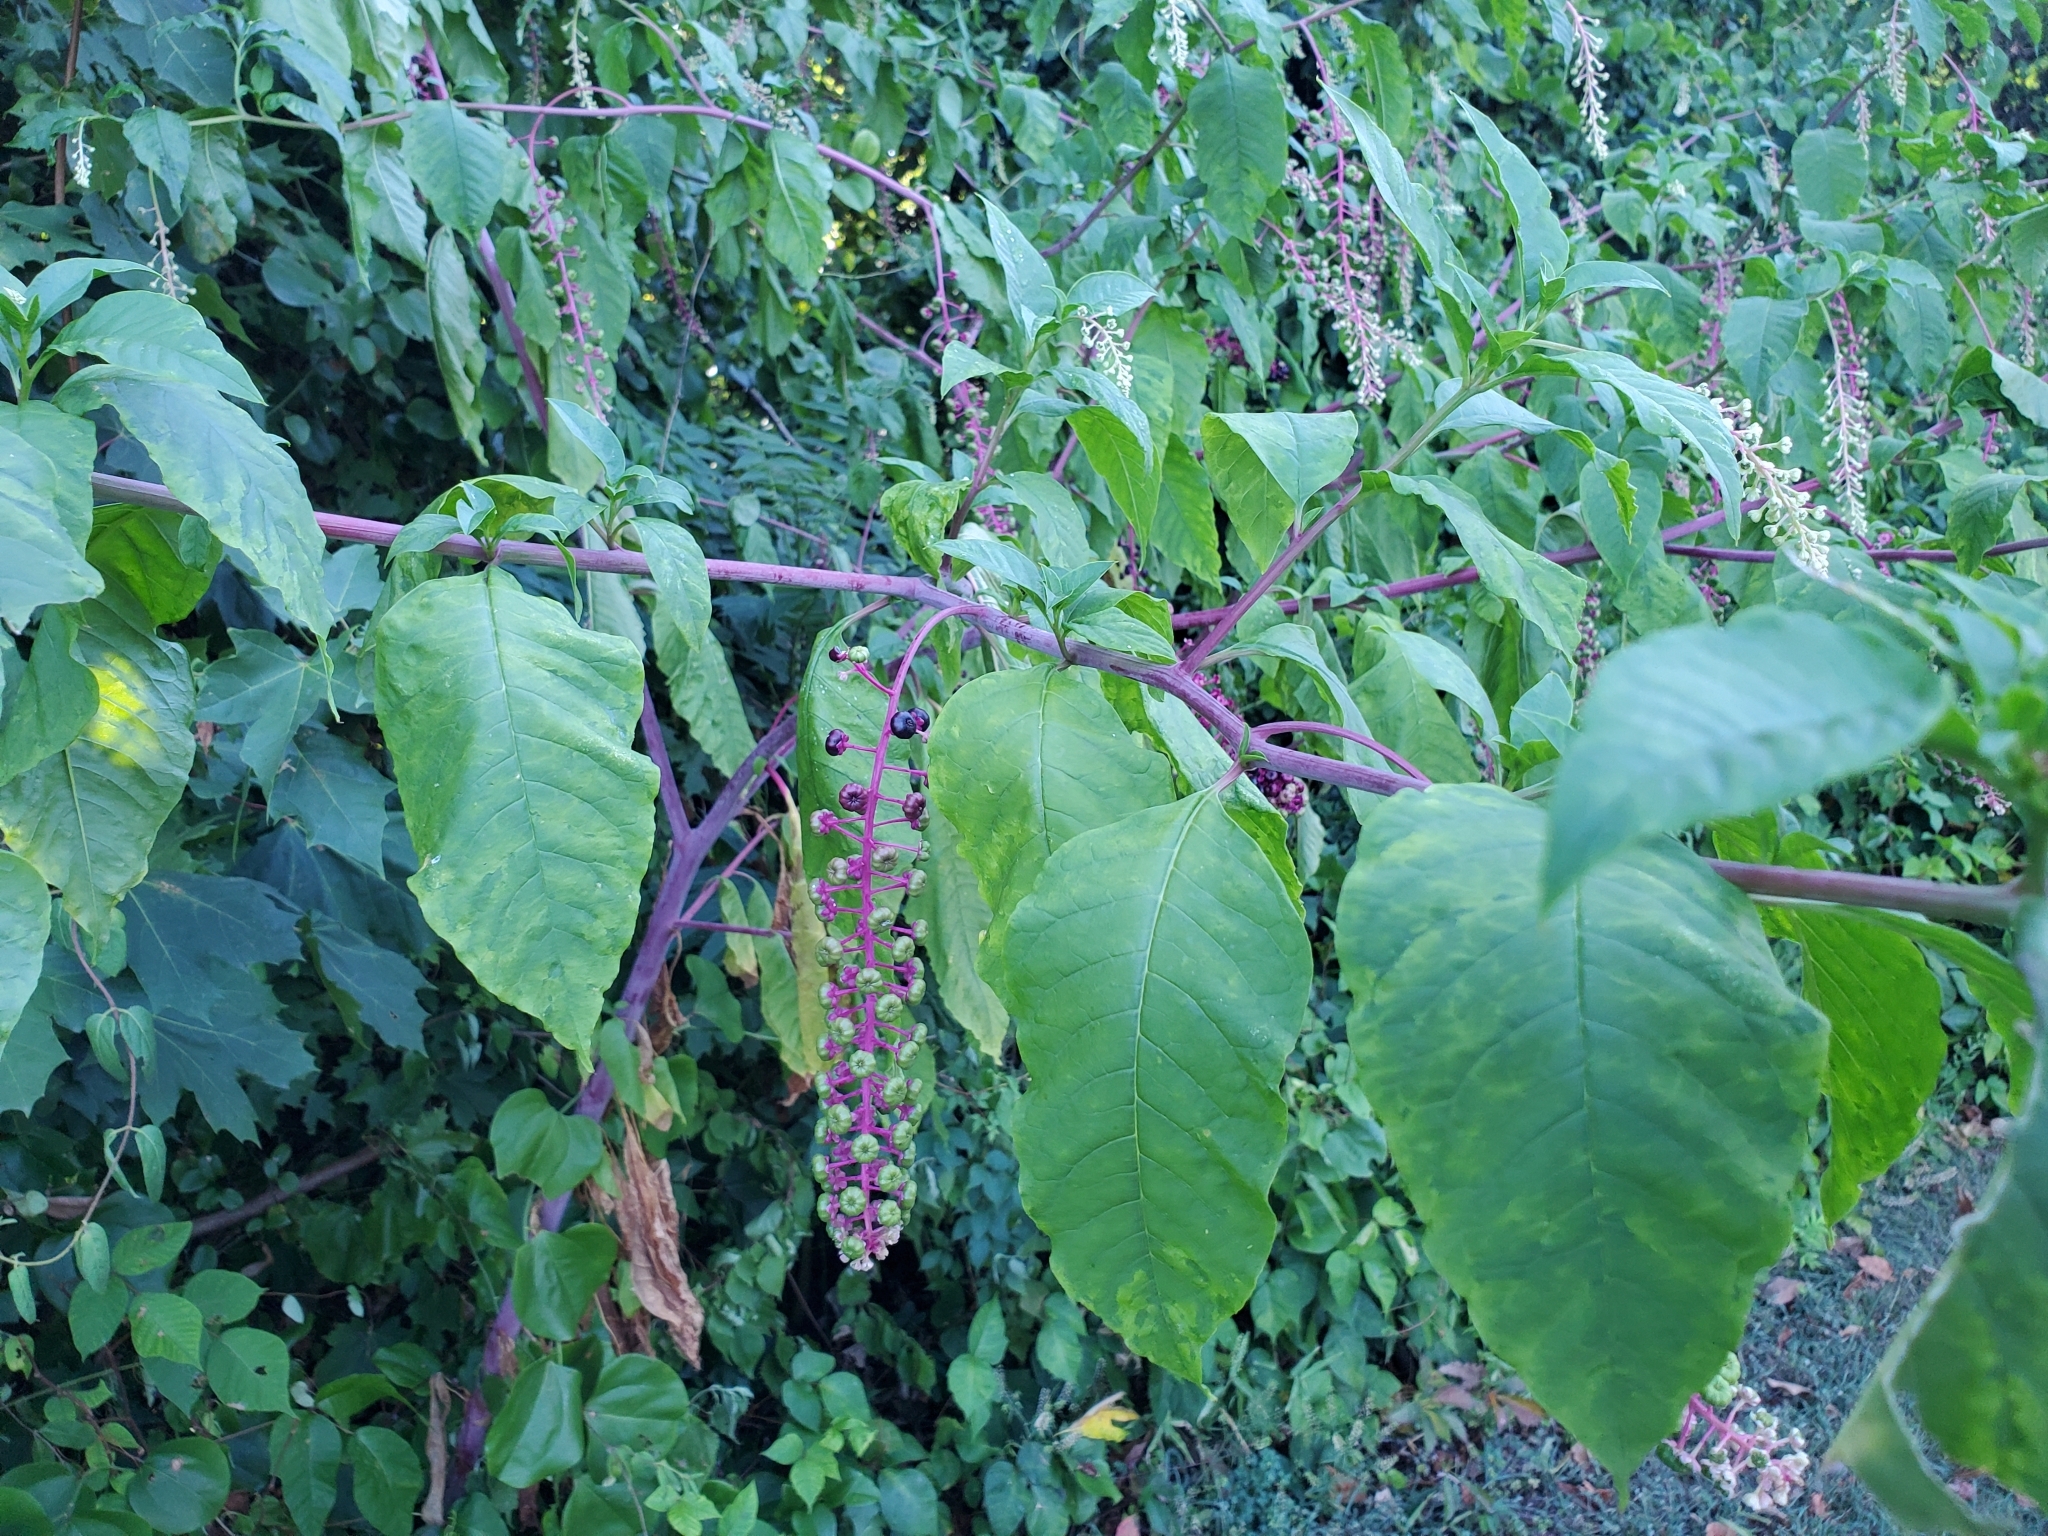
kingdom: Plantae
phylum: Tracheophyta
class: Magnoliopsida
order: Caryophyllales
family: Phytolaccaceae
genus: Phytolacca
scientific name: Phytolacca americana
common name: American pokeweed
